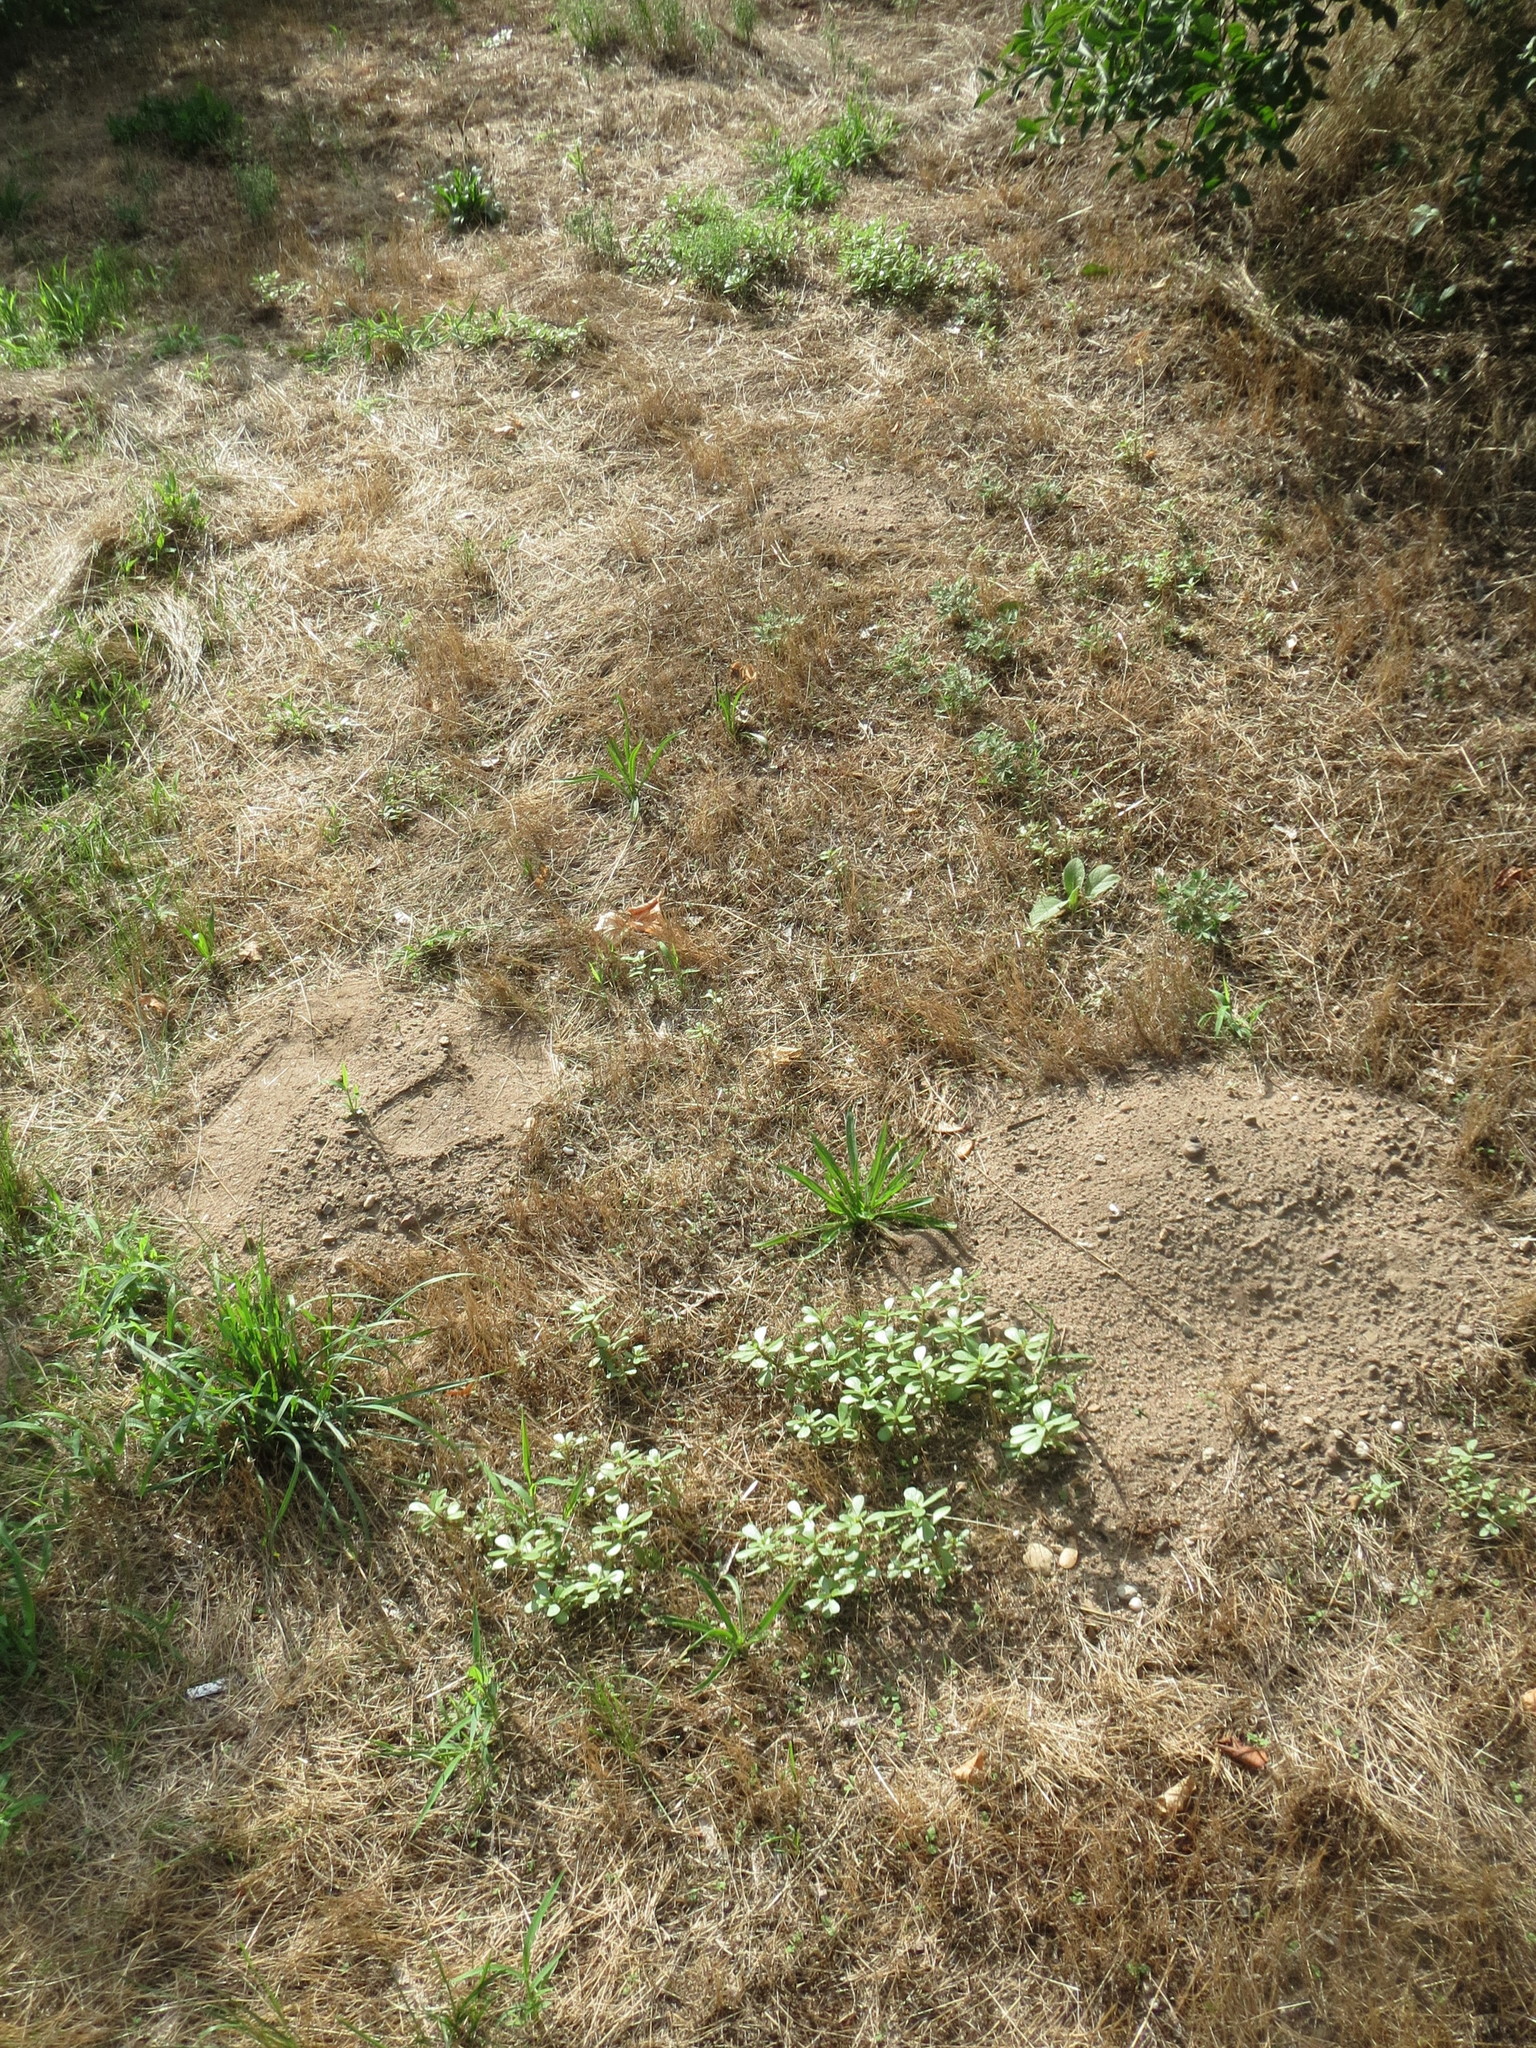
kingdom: Plantae
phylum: Tracheophyta
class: Magnoliopsida
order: Caryophyllales
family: Portulacaceae
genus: Portulaca
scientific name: Portulaca oleracea
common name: Common purslane
